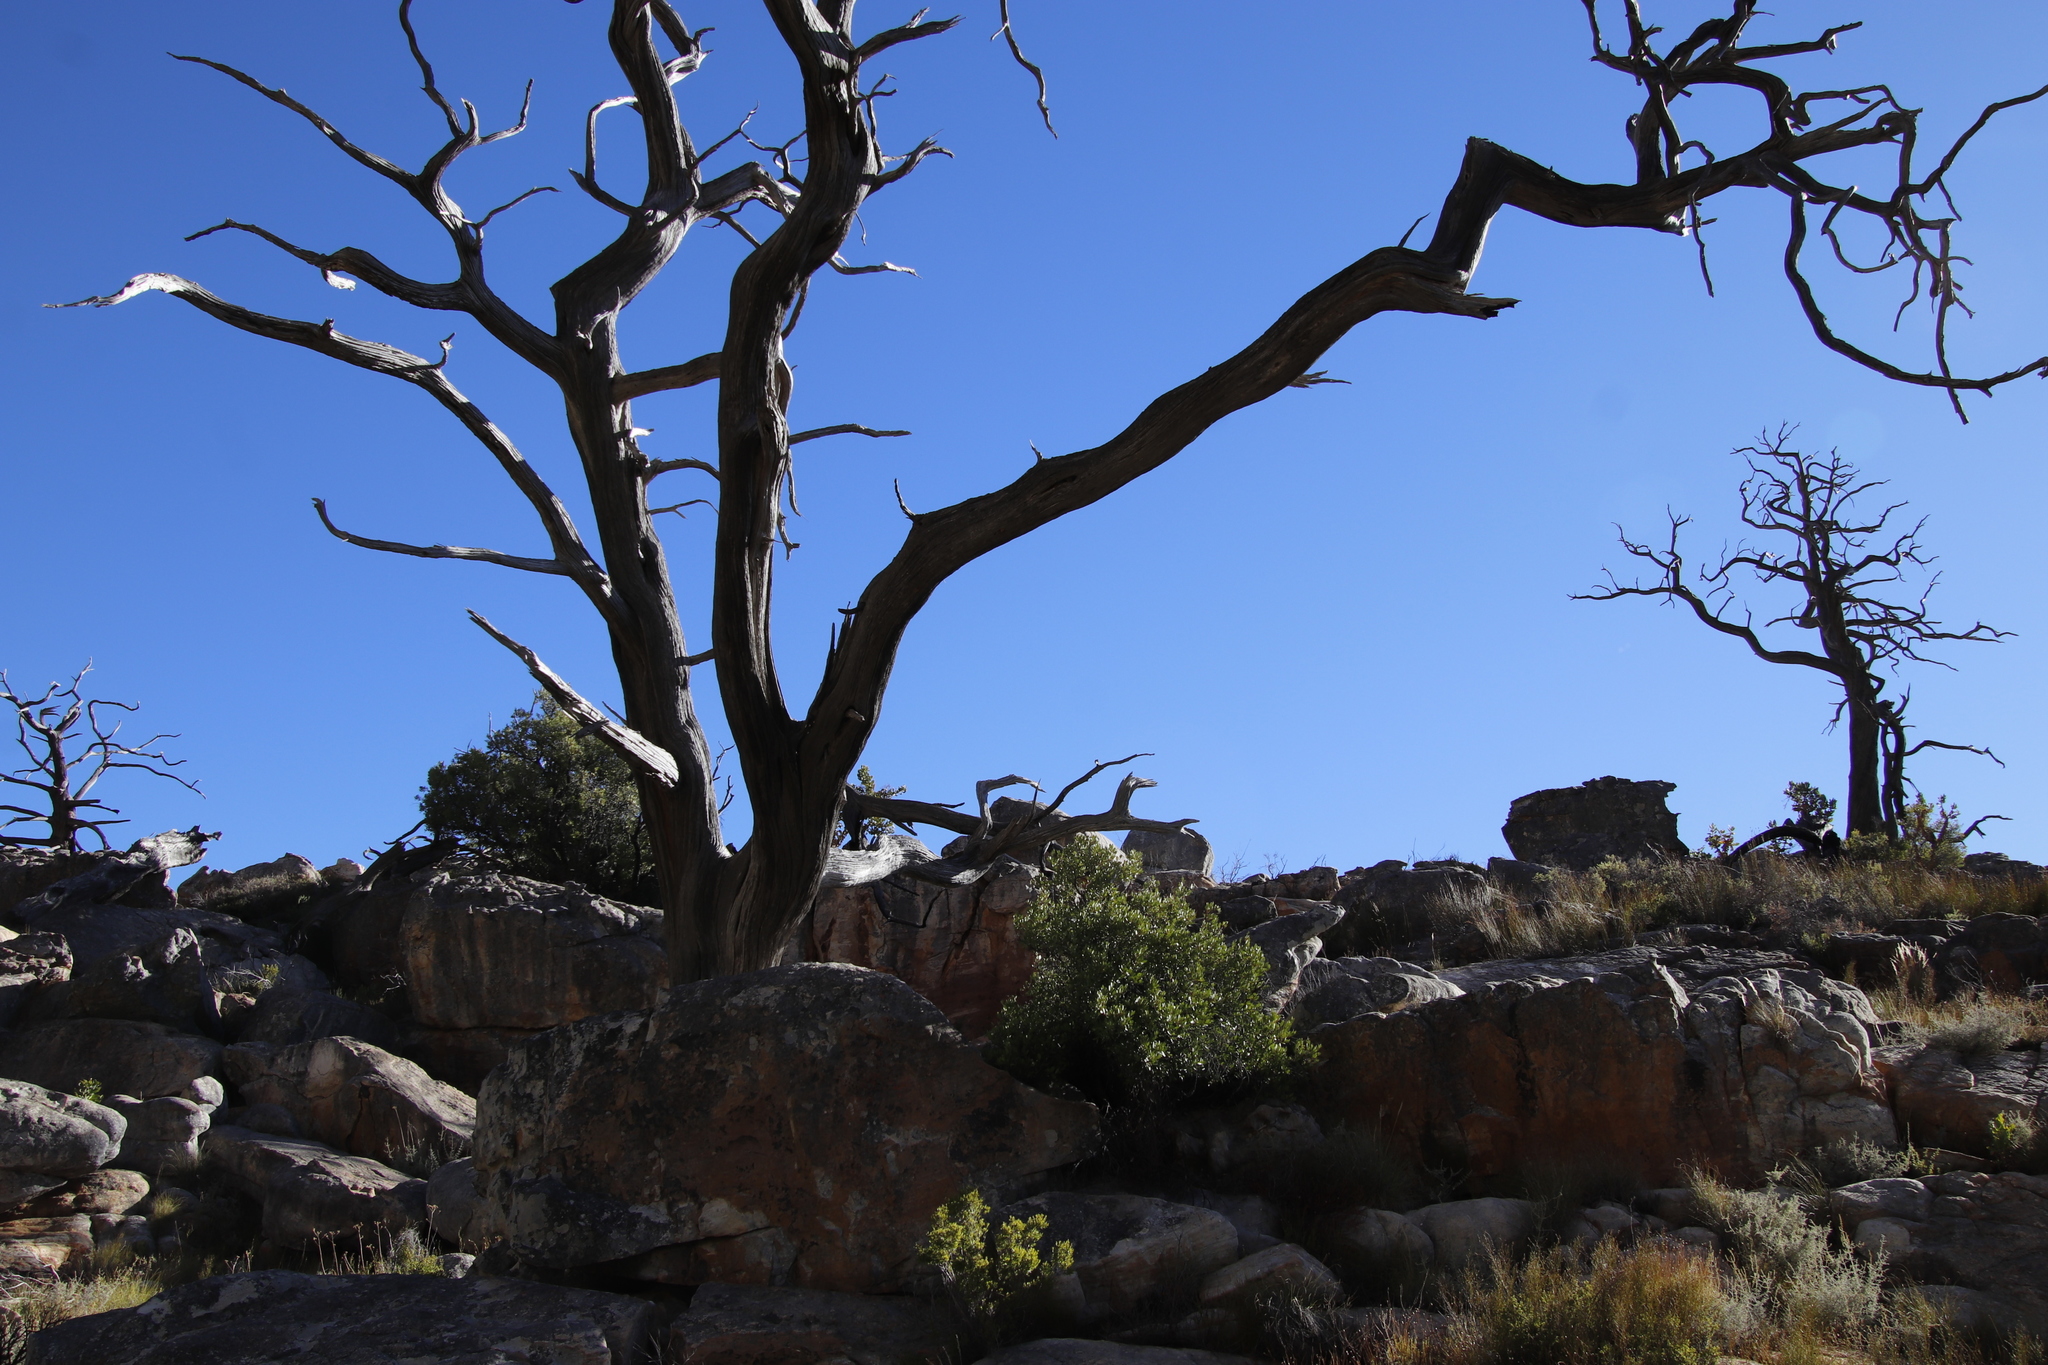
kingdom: Plantae
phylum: Tracheophyta
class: Pinopsida
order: Pinales
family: Cupressaceae
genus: Widdringtonia
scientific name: Widdringtonia nodiflora
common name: Cape cypress
